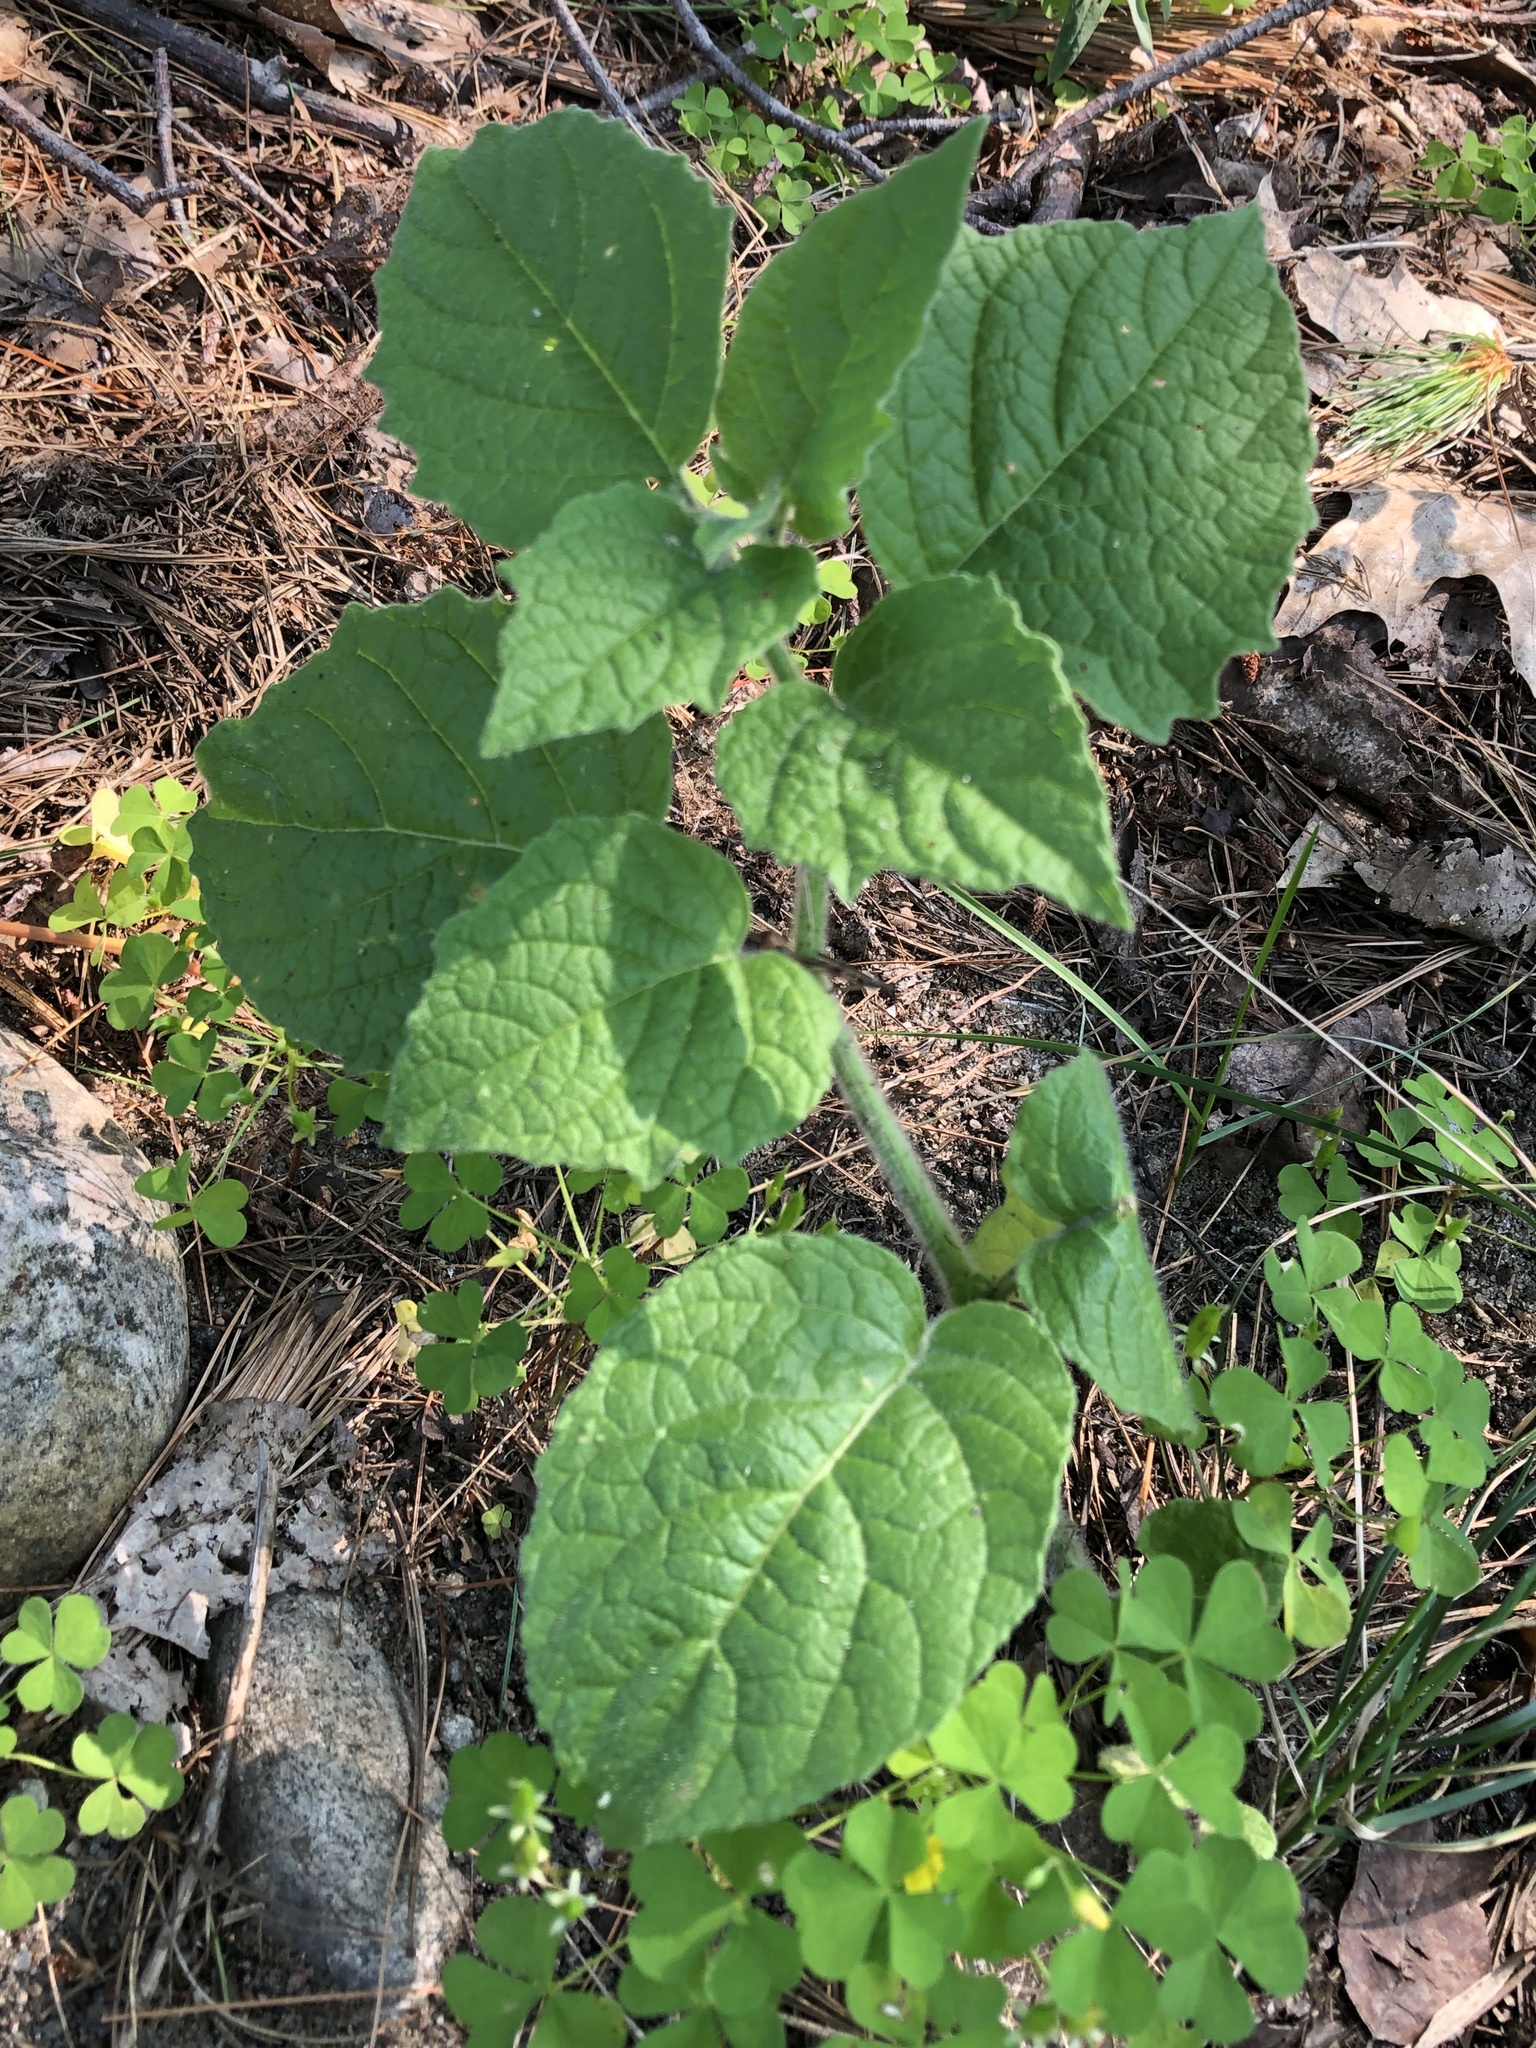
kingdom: Plantae
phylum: Tracheophyta
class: Magnoliopsida
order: Solanales
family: Solanaceae
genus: Physalis
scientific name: Physalis heterophylla
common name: Clammy ground-cherry
